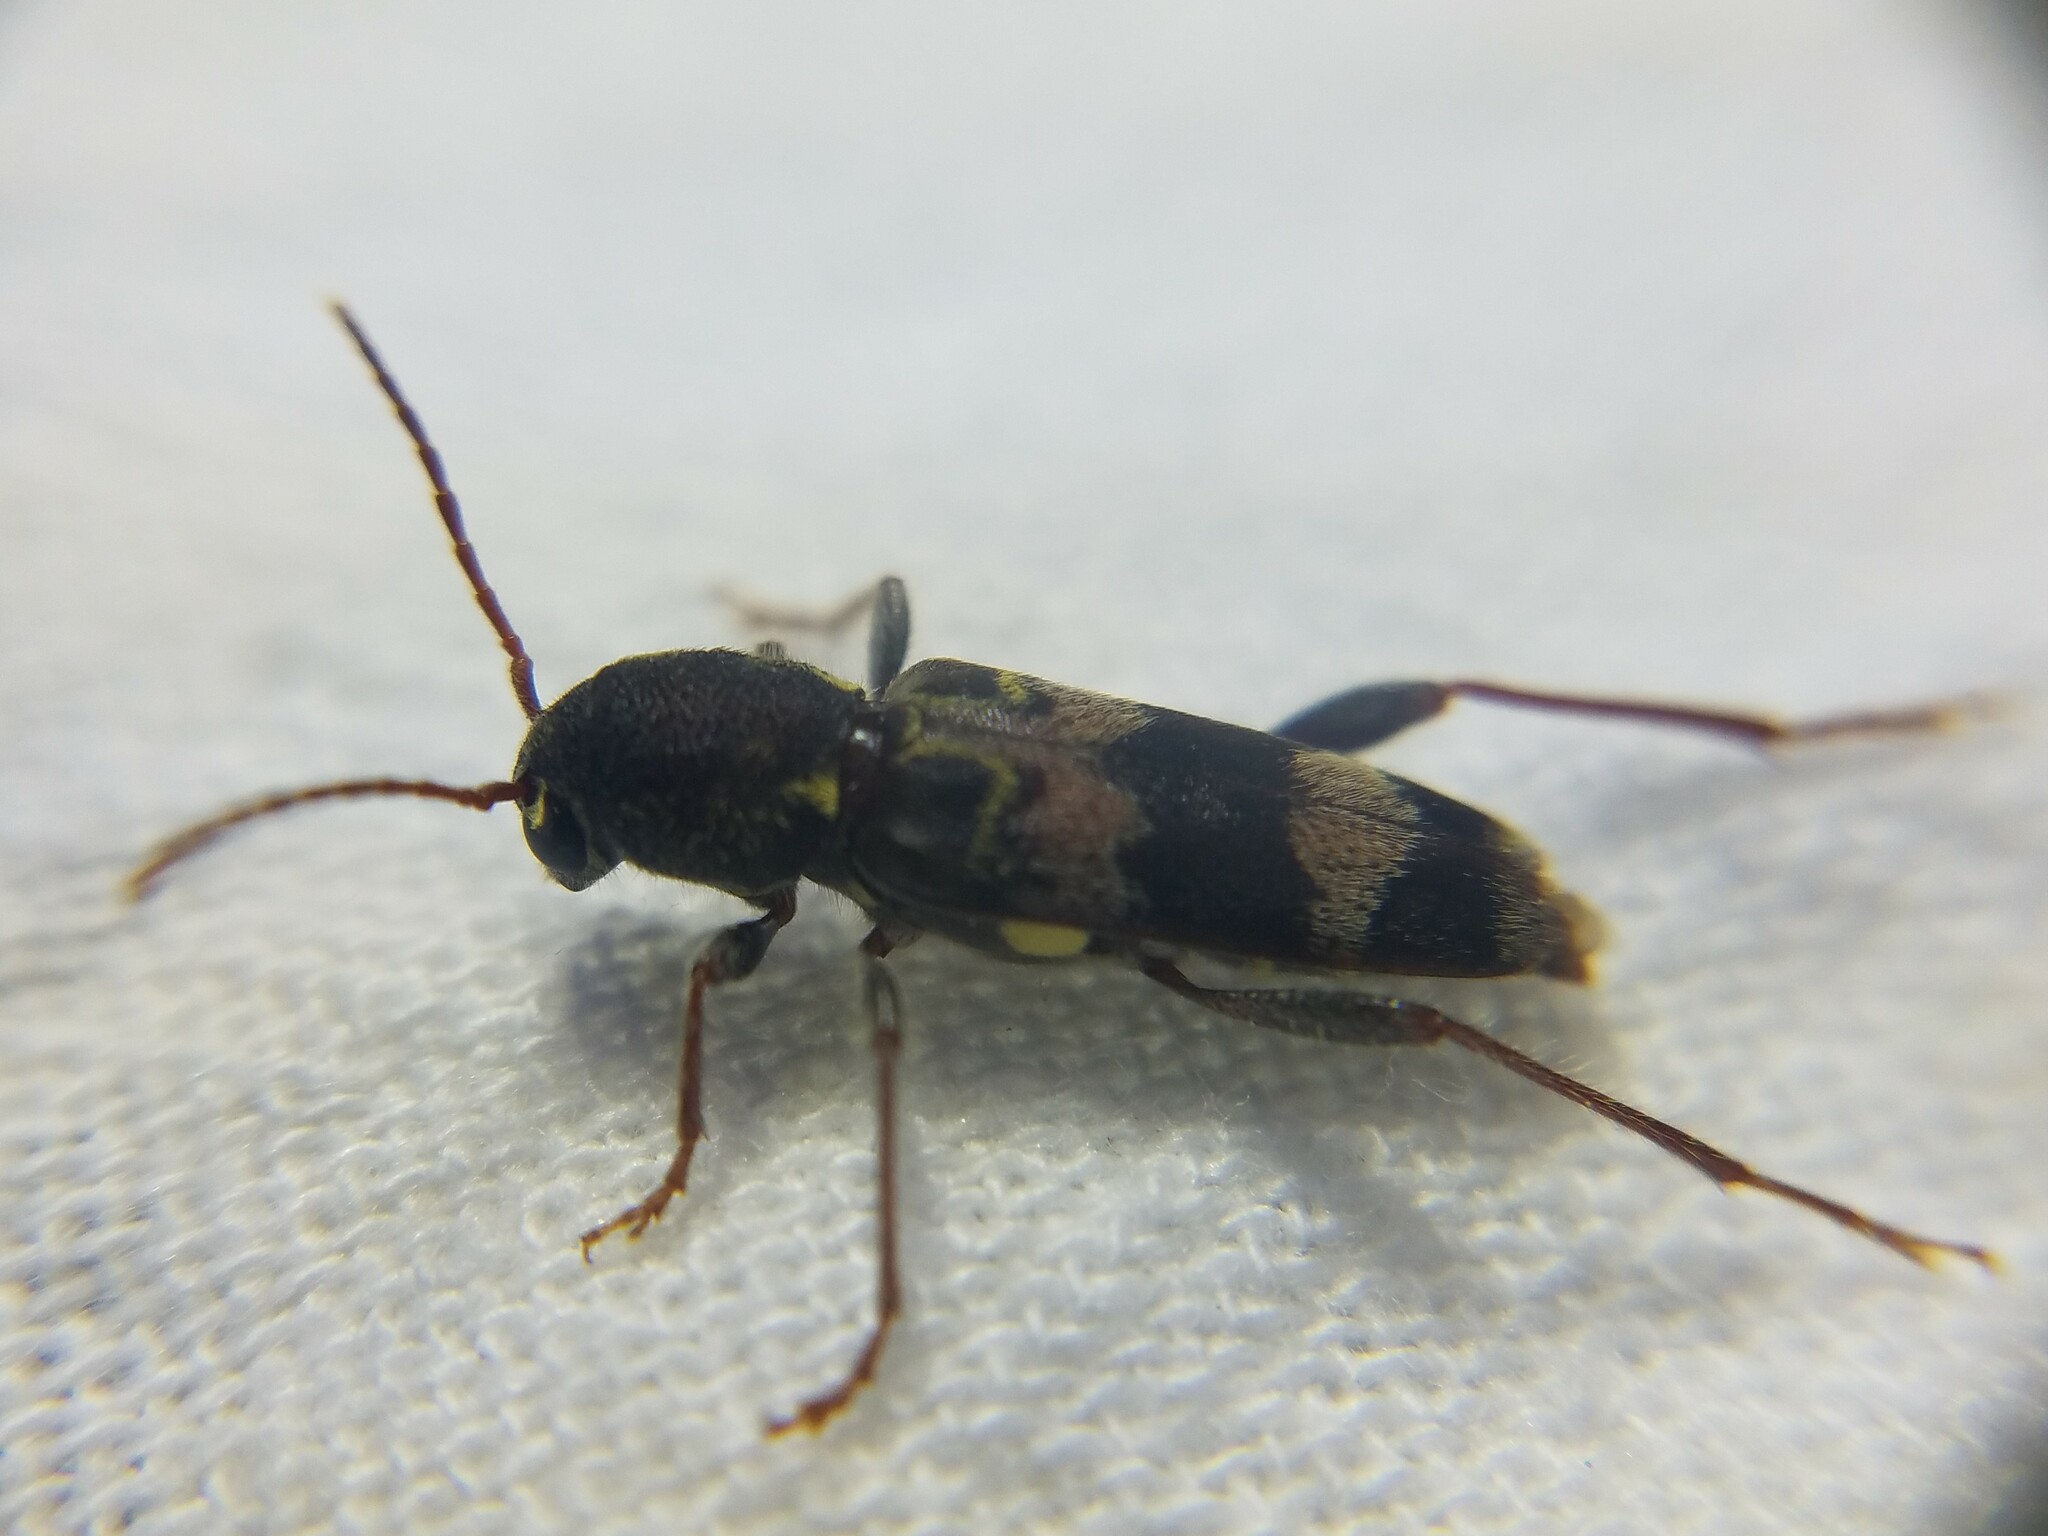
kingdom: Animalia
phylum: Arthropoda
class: Insecta
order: Coleoptera
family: Cerambycidae
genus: Xylotrechus
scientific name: Xylotrechus colonus
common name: Long-horned beetle
